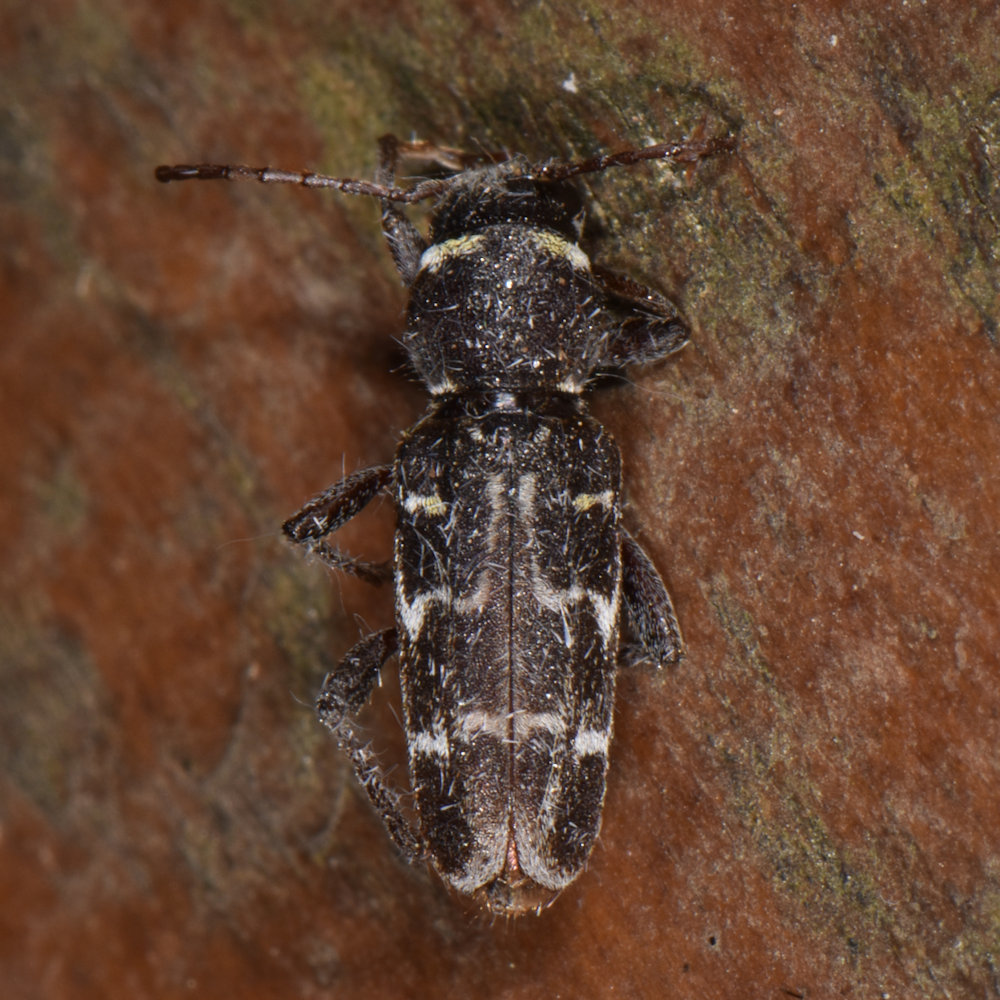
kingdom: Animalia
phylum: Arthropoda
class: Insecta
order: Coleoptera
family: Cerambycidae
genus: Xylotrechus
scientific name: Xylotrechus integer
